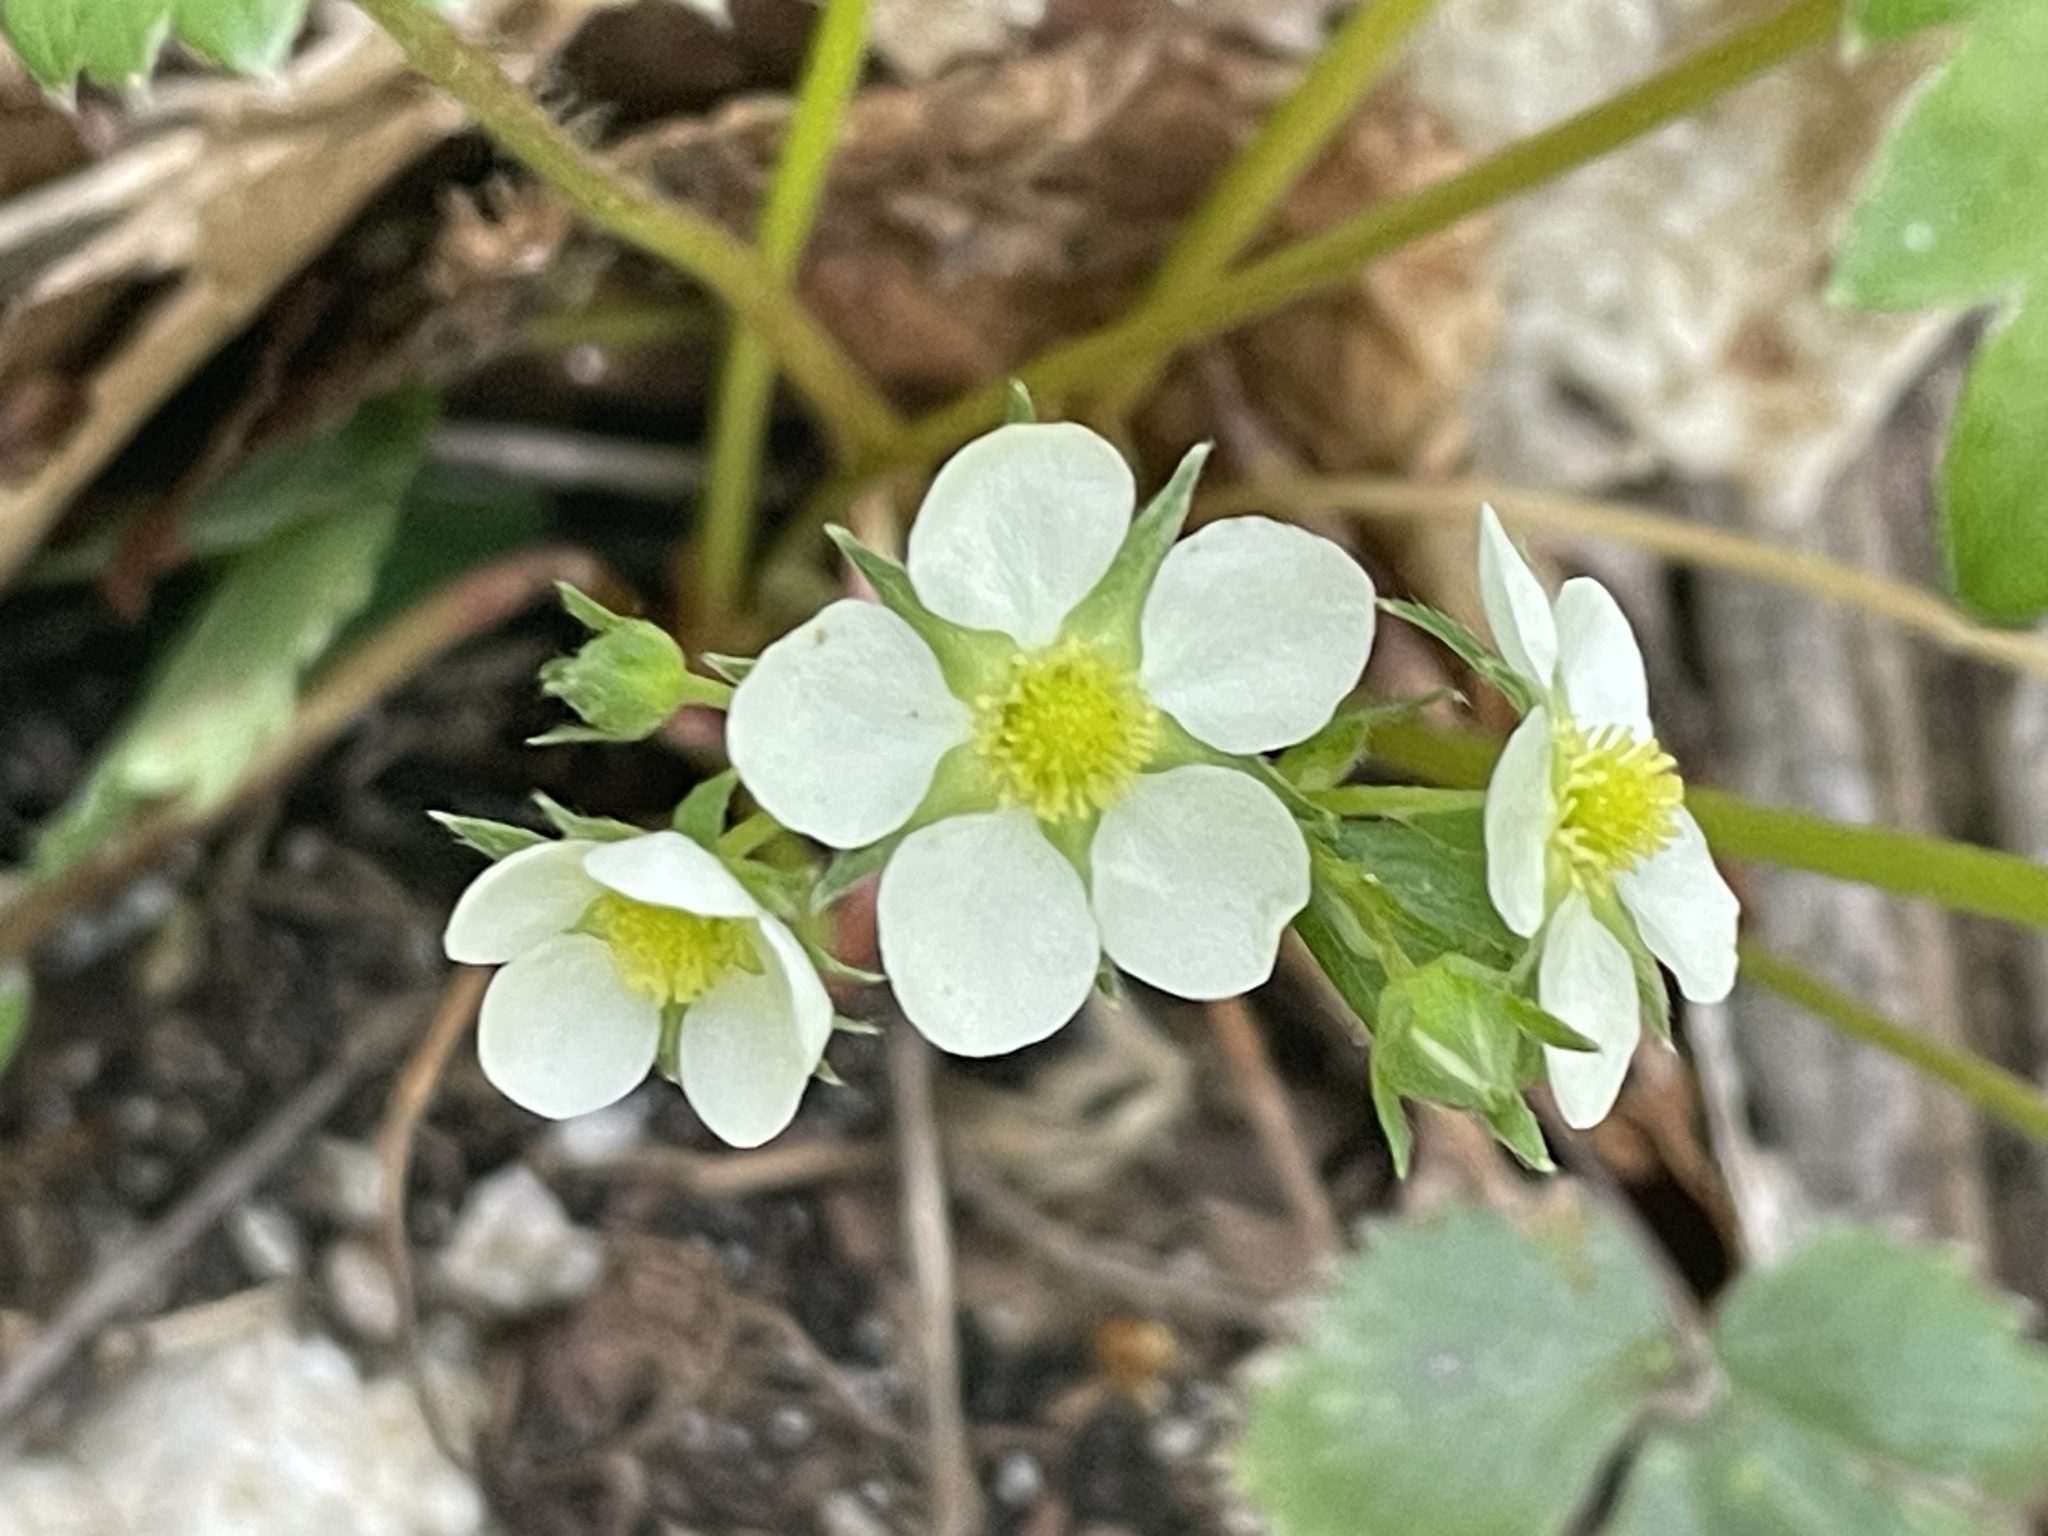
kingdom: Plantae
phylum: Tracheophyta
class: Magnoliopsida
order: Rosales
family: Rosaceae
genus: Fragaria
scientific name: Fragaria virginiana
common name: Thickleaved wild strawberry
